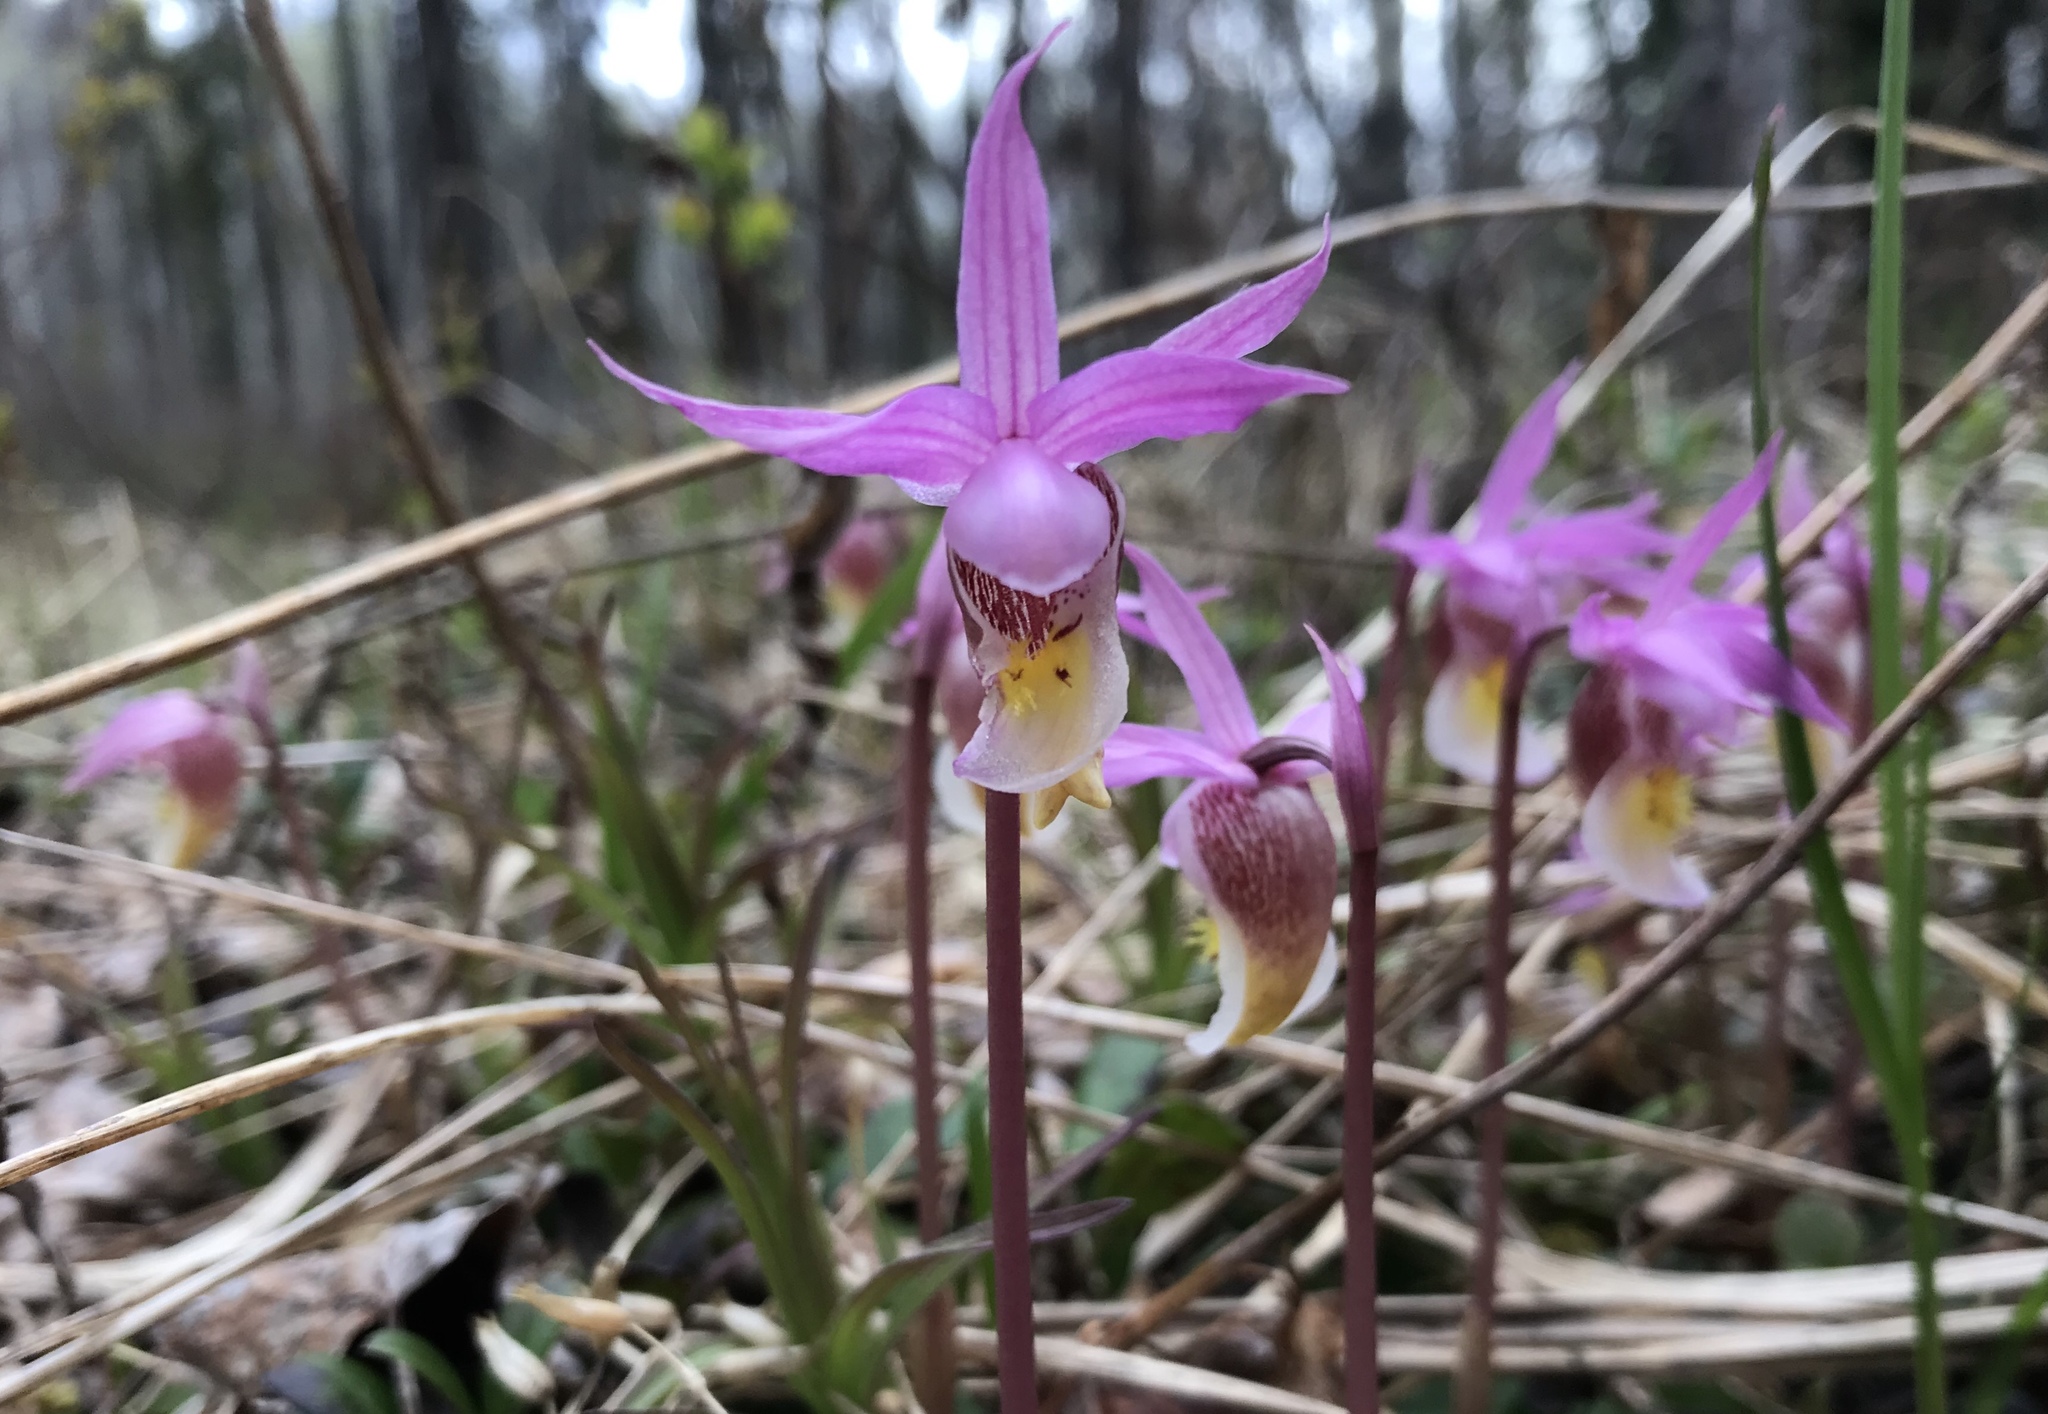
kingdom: Plantae
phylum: Tracheophyta
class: Liliopsida
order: Asparagales
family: Orchidaceae
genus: Calypso
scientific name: Calypso bulbosa
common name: Calypso
